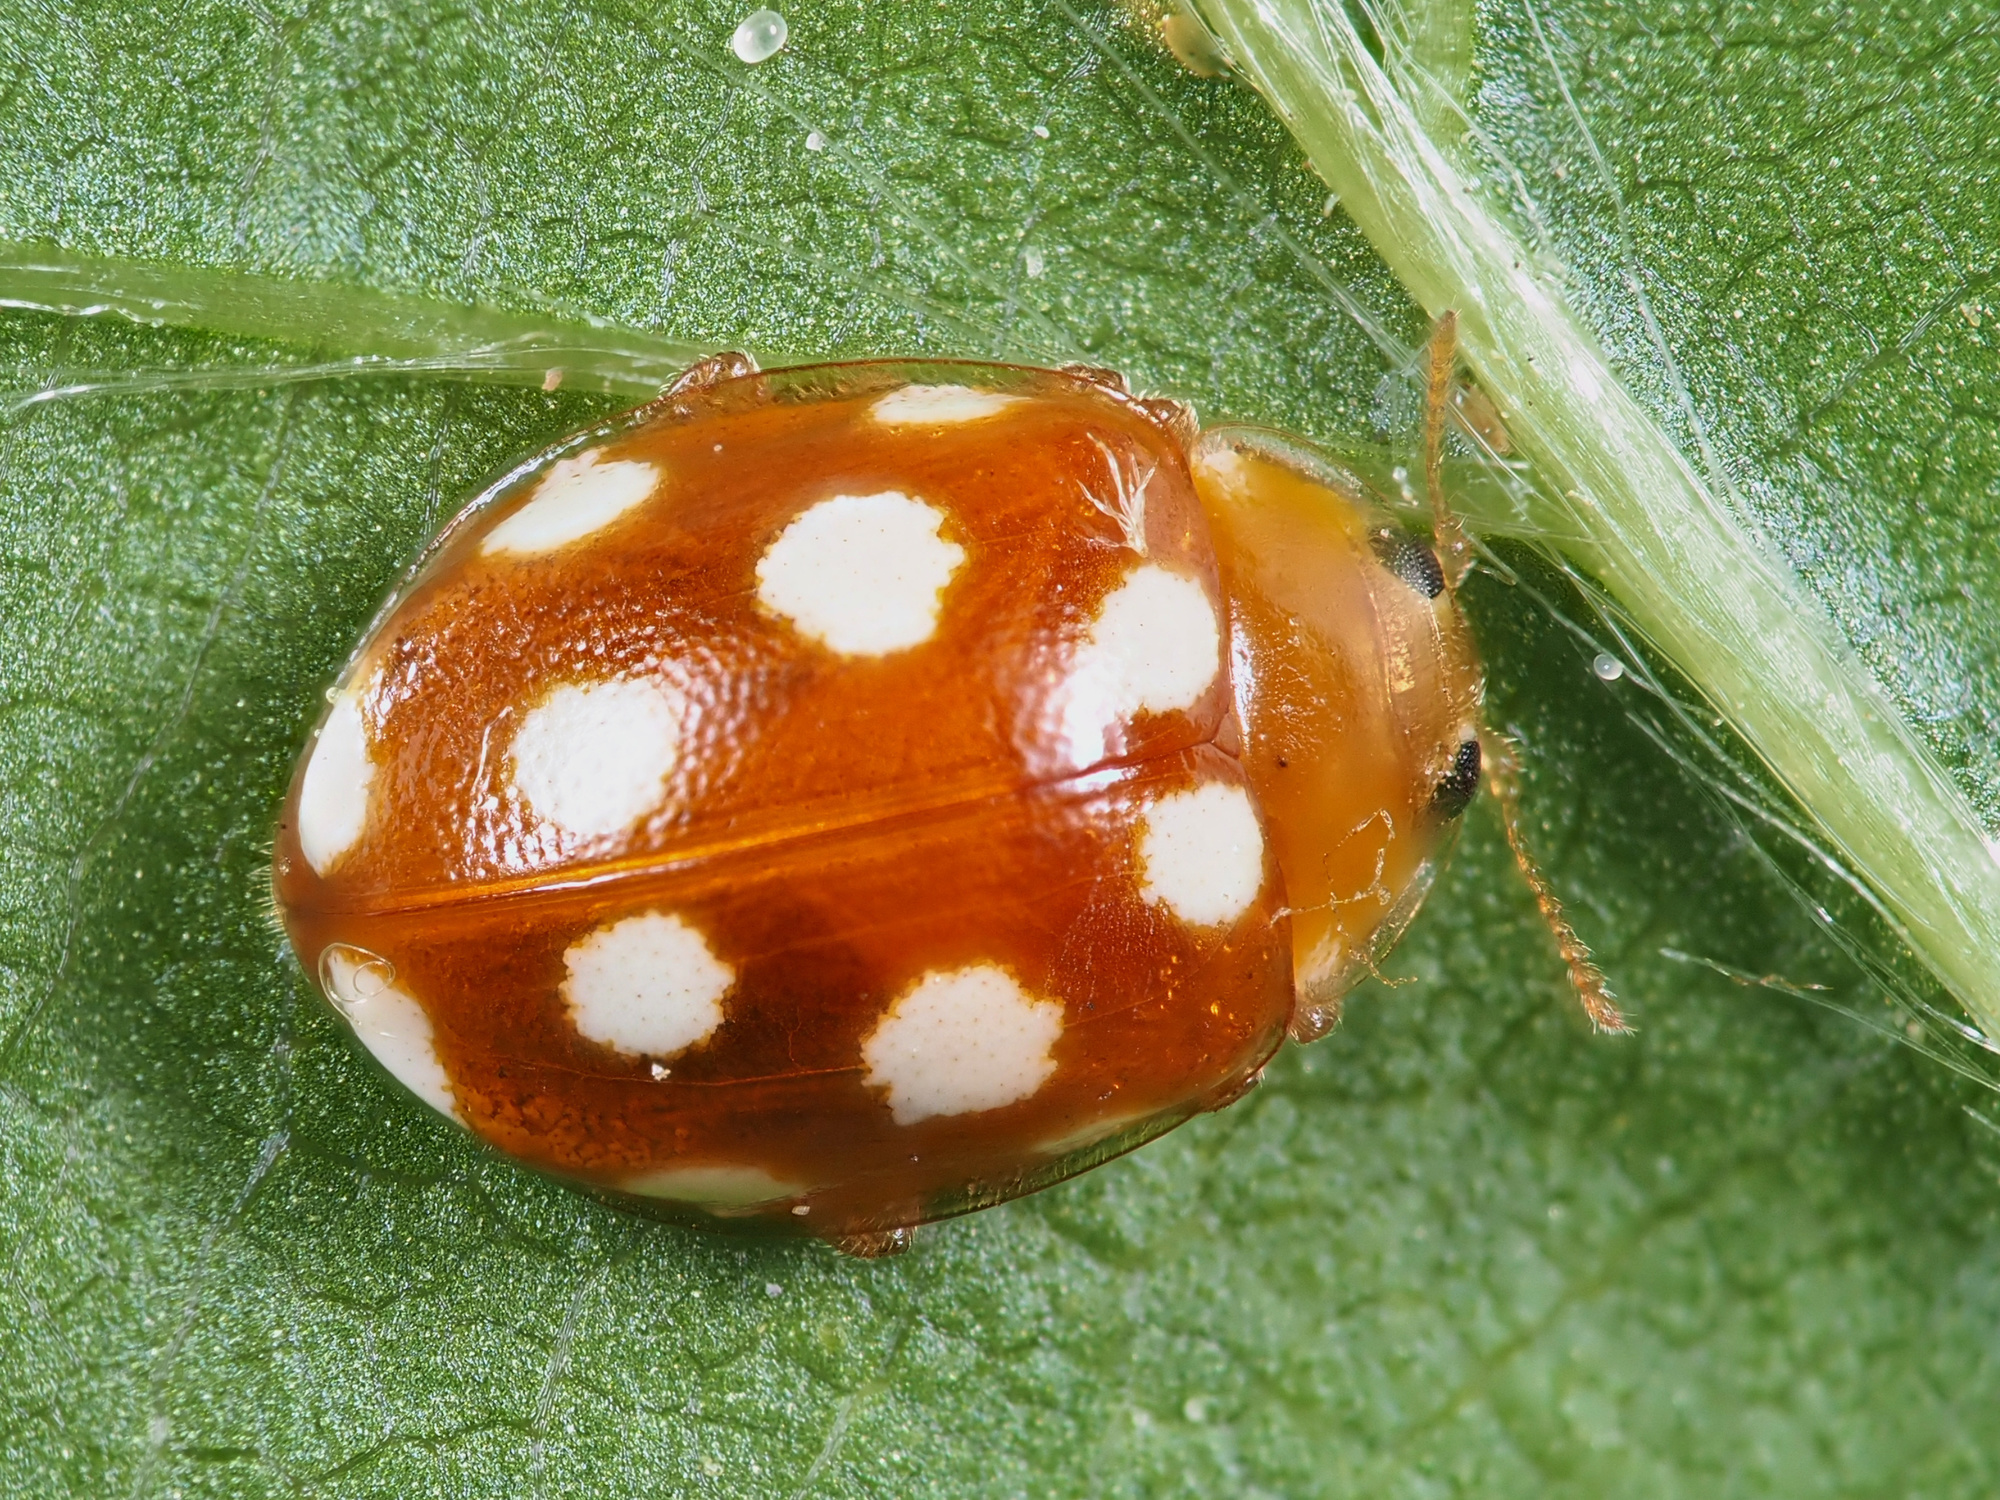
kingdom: Animalia
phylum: Arthropoda
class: Insecta
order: Coleoptera
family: Coccinellidae
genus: Vibidia
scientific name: Vibidia duodecimguttata
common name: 12-spot ladybird
